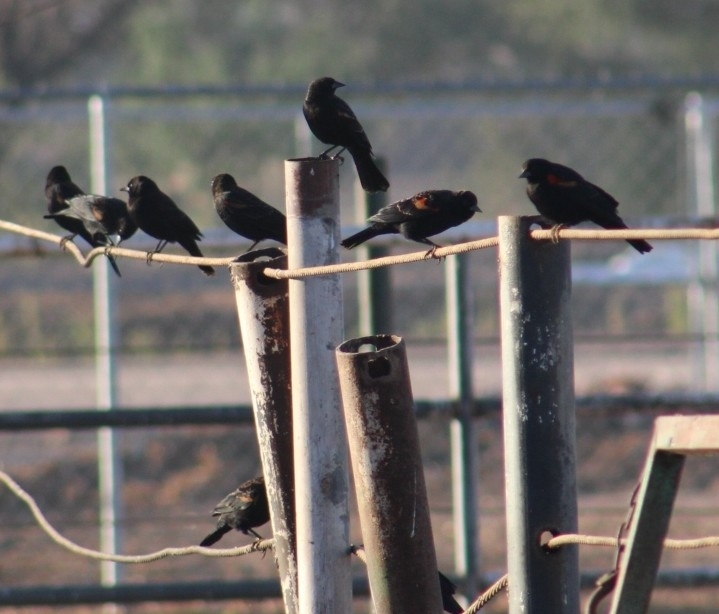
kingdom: Animalia
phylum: Chordata
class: Aves
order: Passeriformes
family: Icteridae
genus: Agelaius
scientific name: Agelaius phoeniceus
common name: Red-winged blackbird
